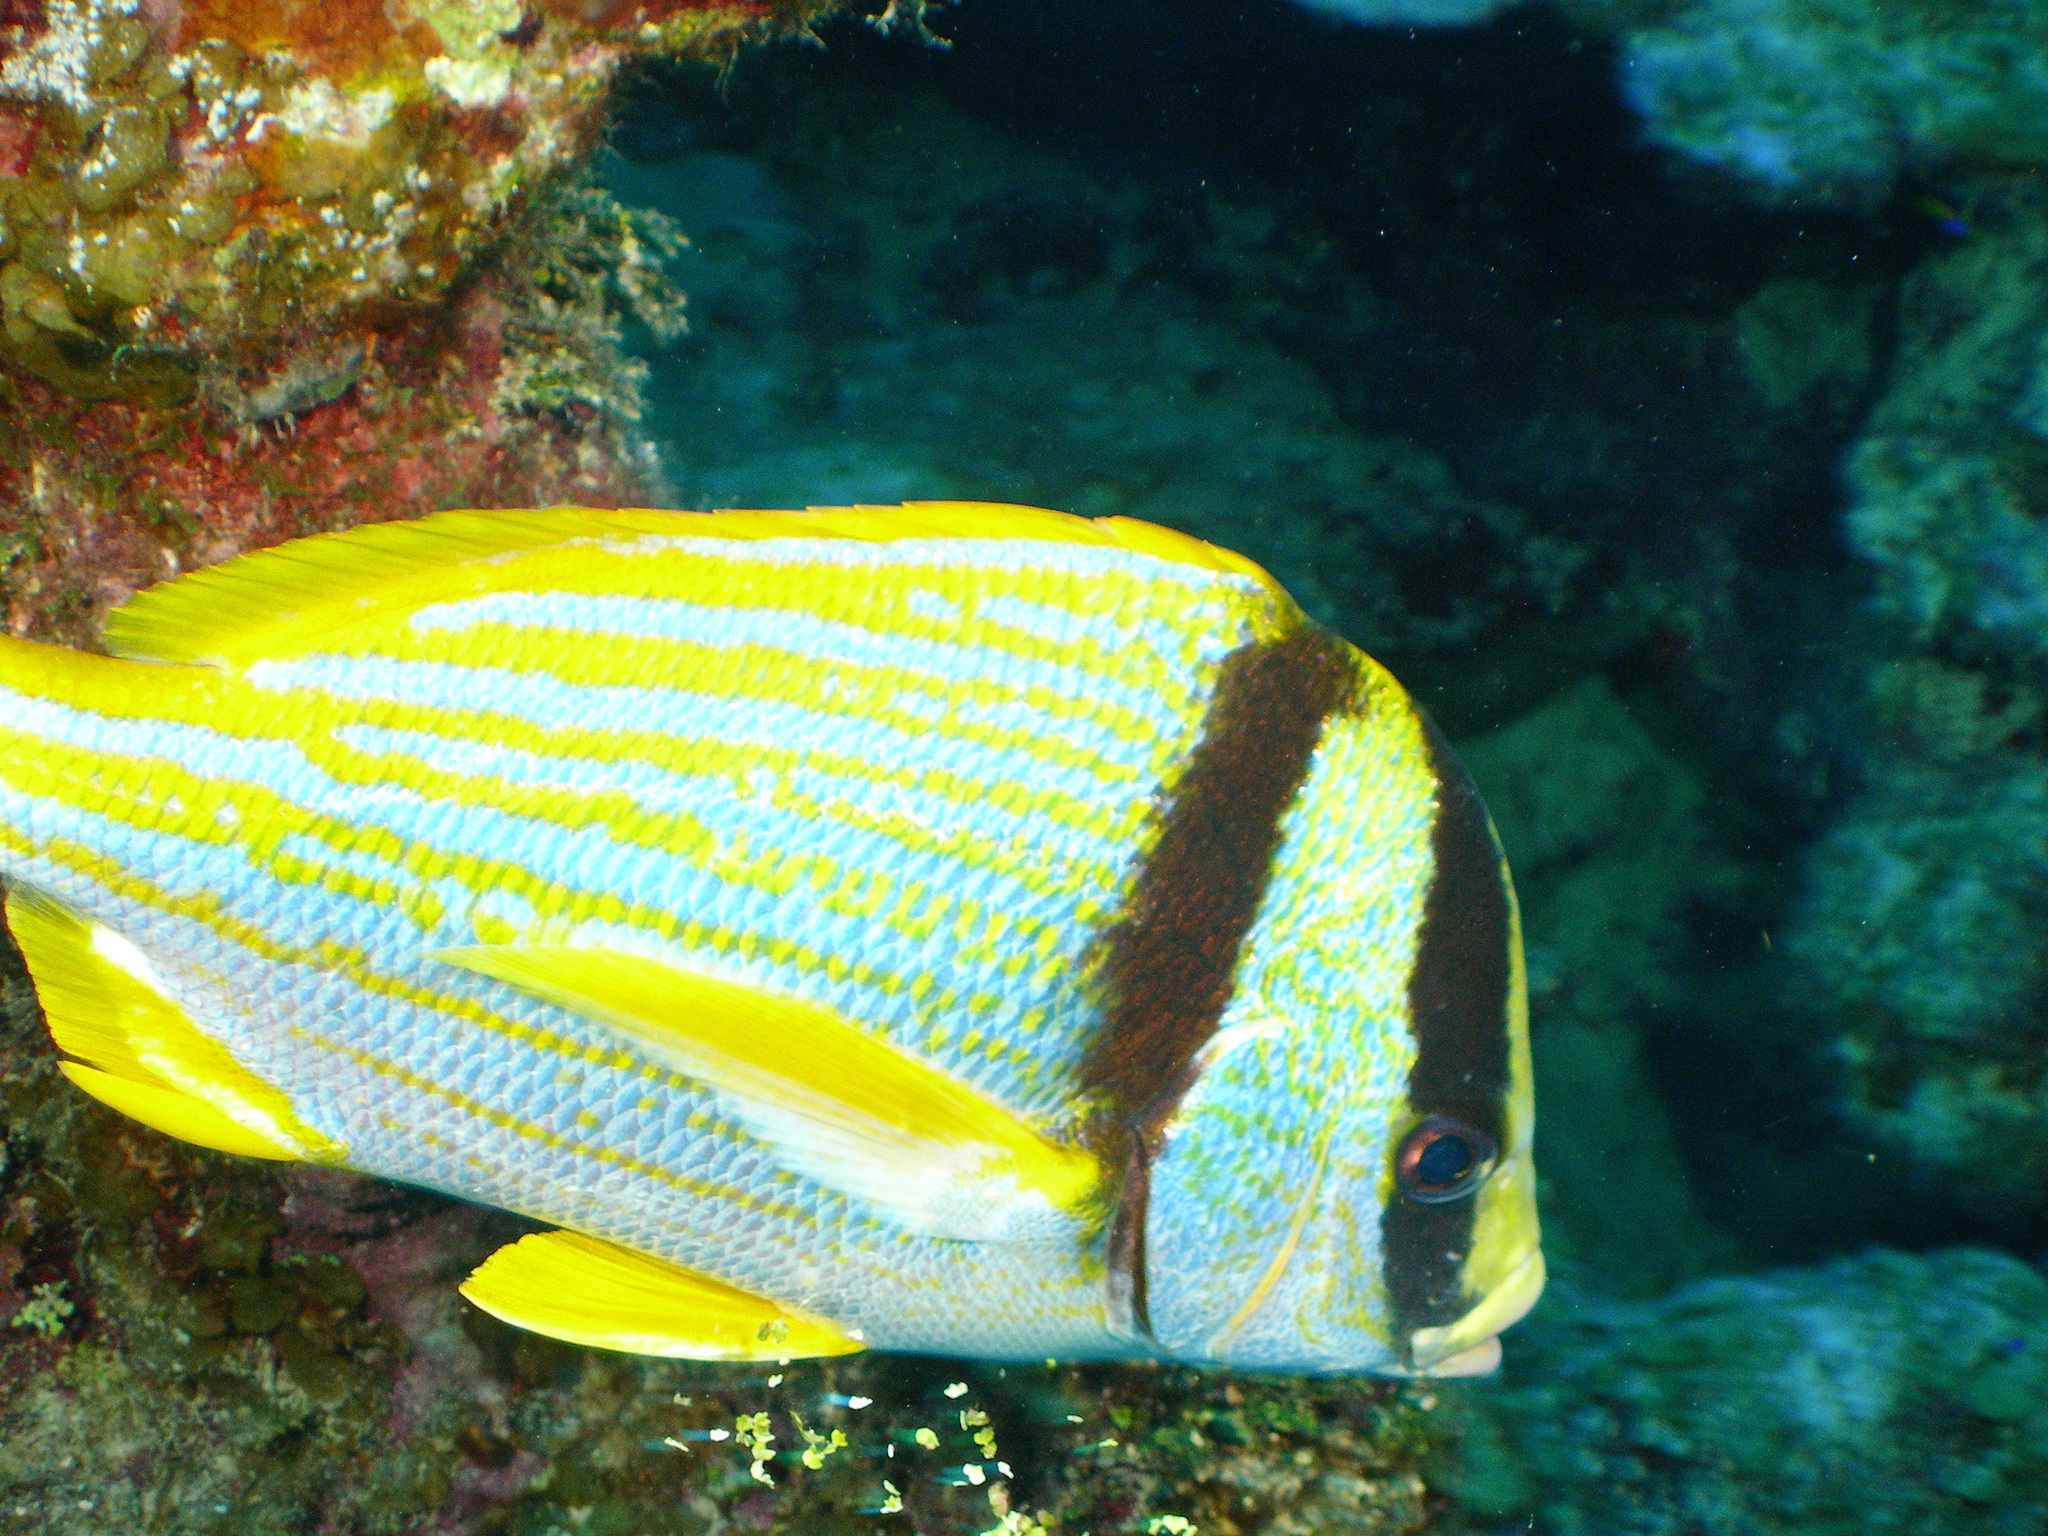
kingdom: Animalia
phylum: Chordata
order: Perciformes
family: Haemulidae
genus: Anisotremus
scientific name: Anisotremus virginicus
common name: Porkfish
